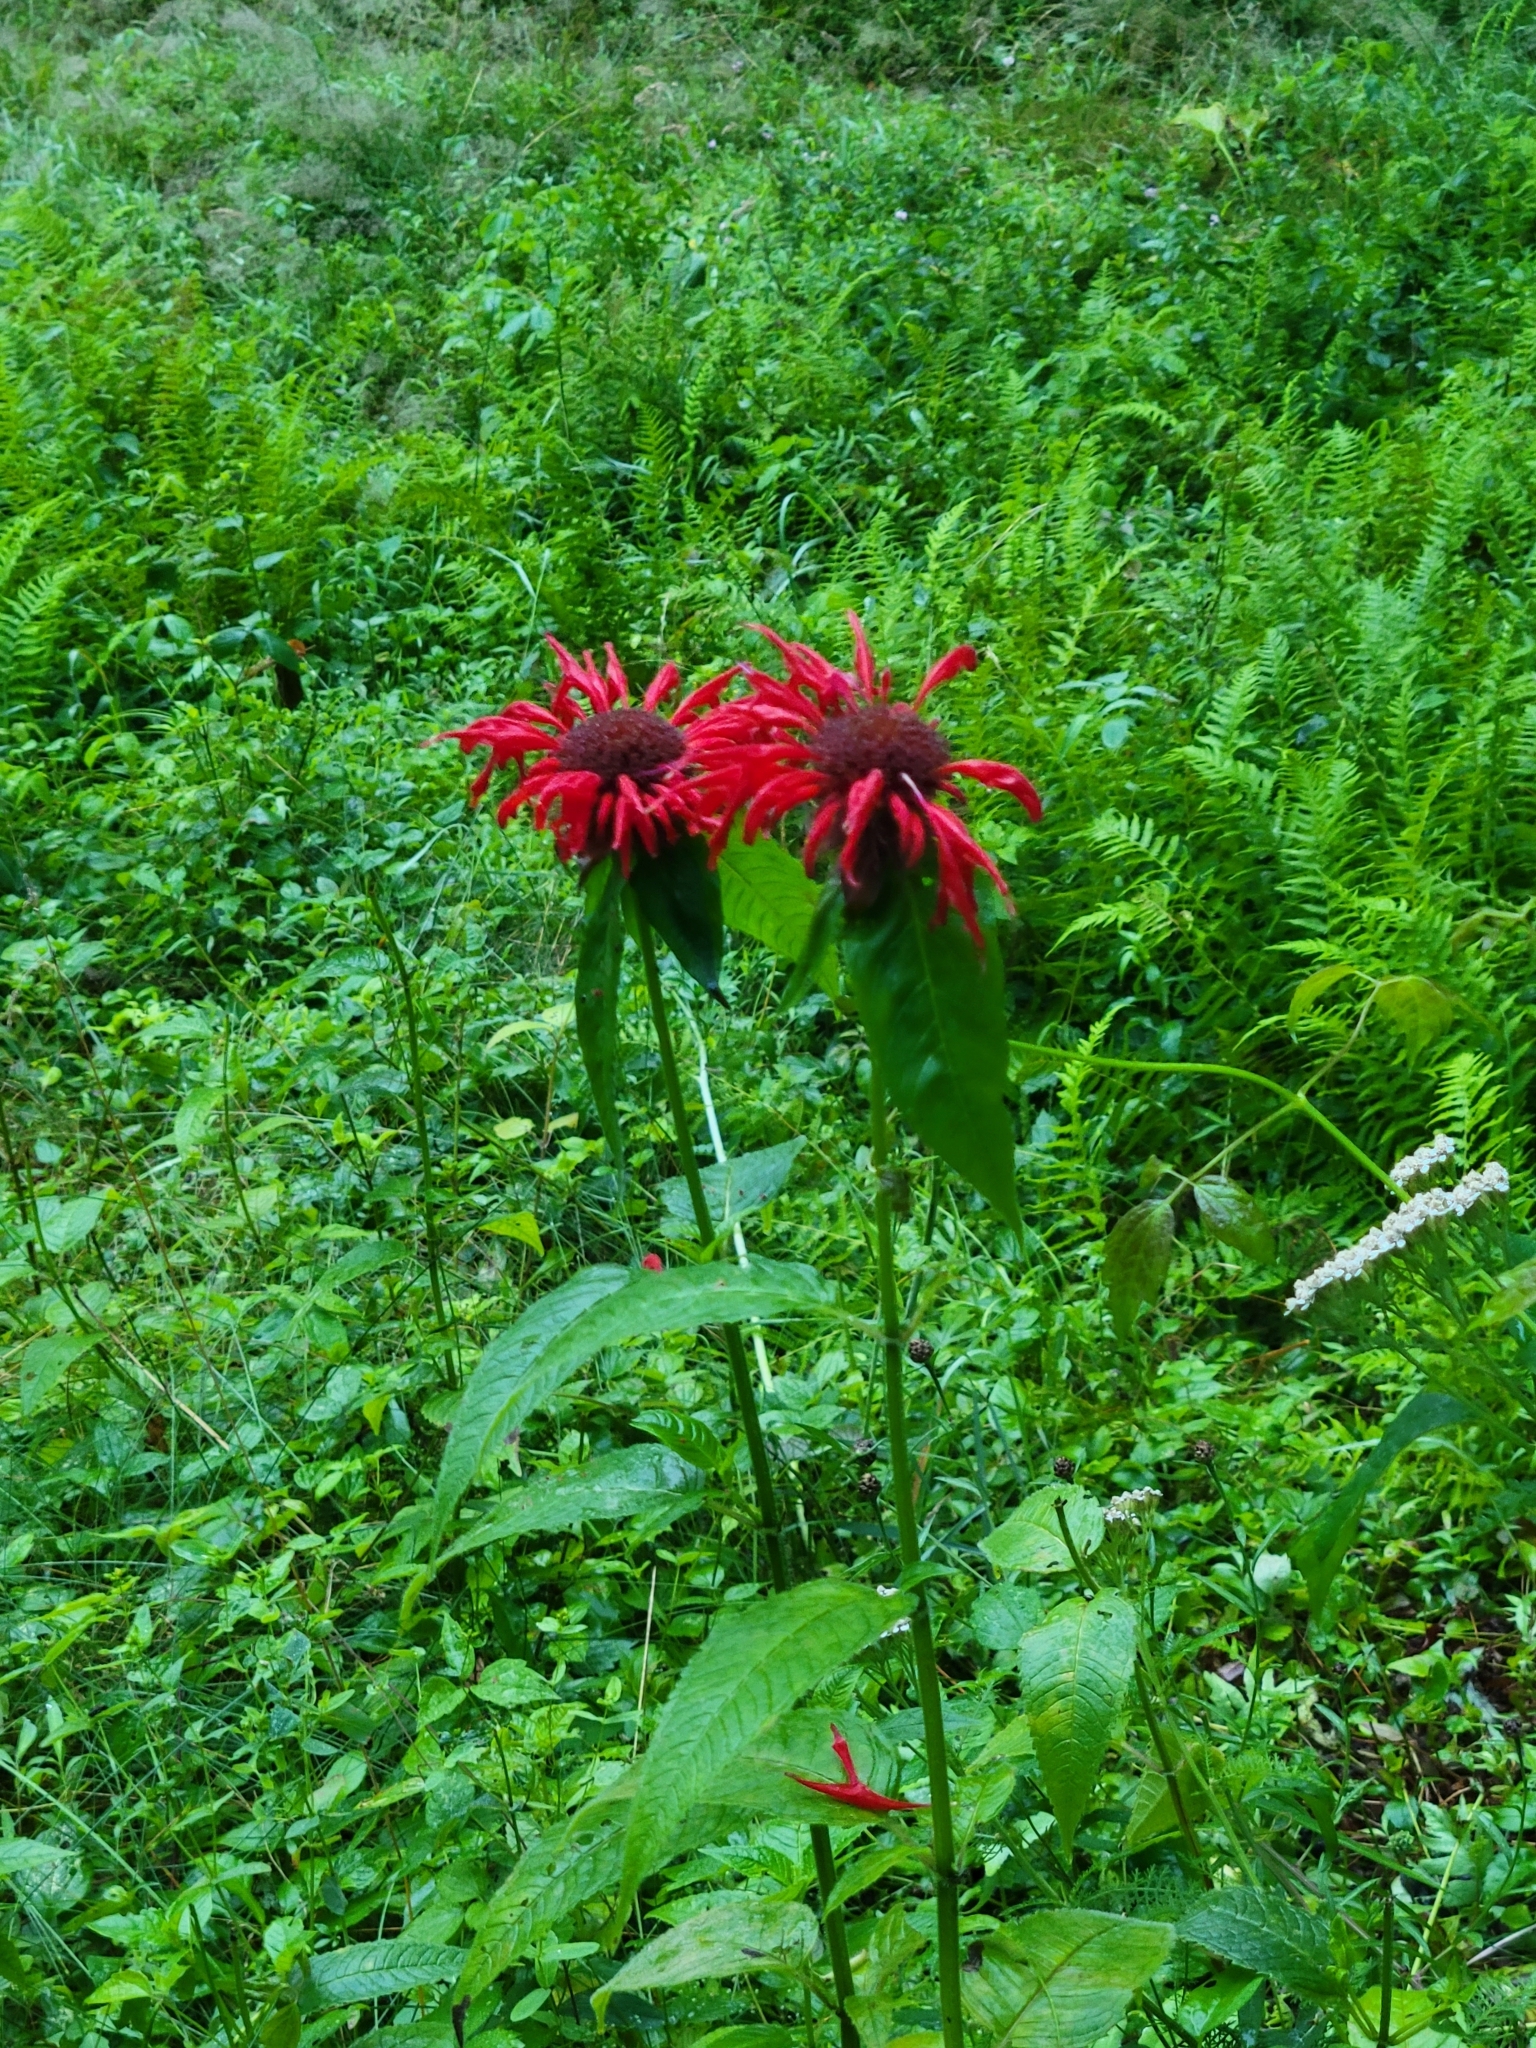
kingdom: Plantae
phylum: Tracheophyta
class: Magnoliopsida
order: Lamiales
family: Lamiaceae
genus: Monarda
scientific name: Monarda didyma
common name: Beebalm
